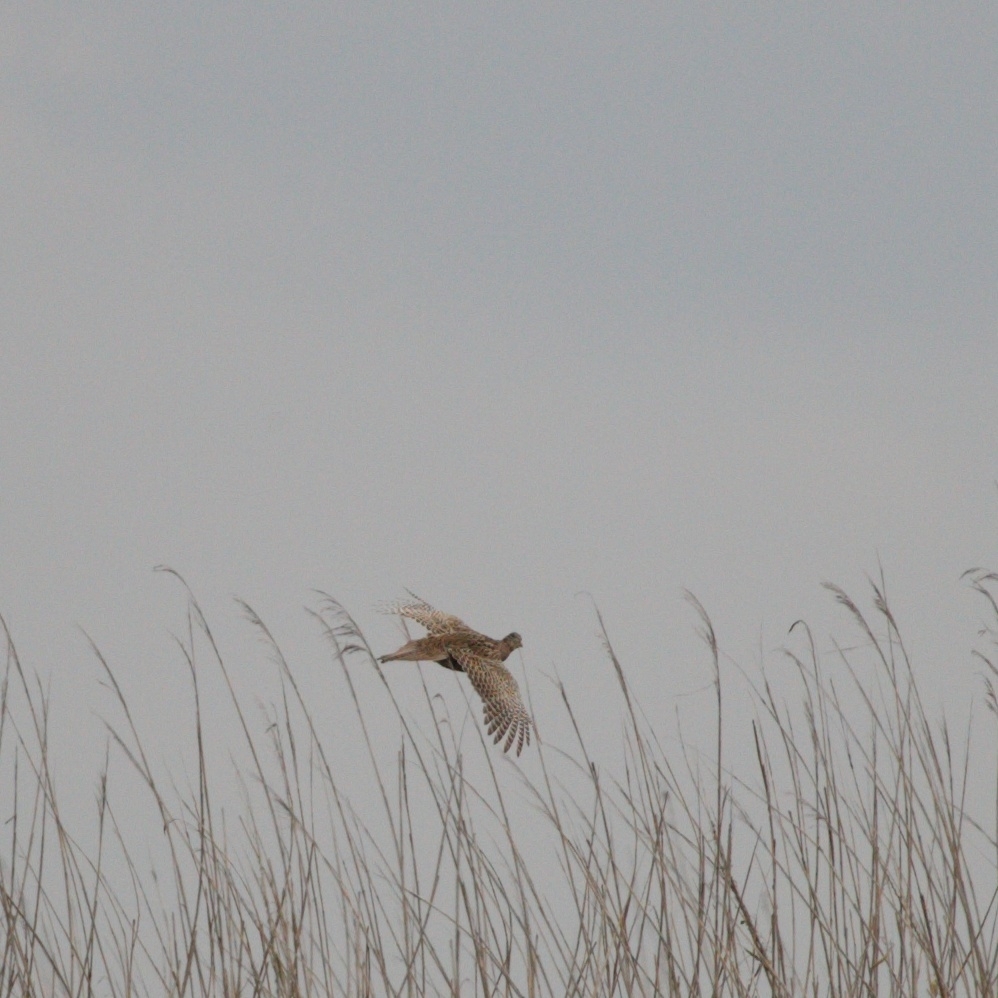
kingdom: Animalia
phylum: Chordata
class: Aves
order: Galliformes
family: Phasianidae
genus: Phasianus
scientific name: Phasianus colchicus
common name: Common pheasant
